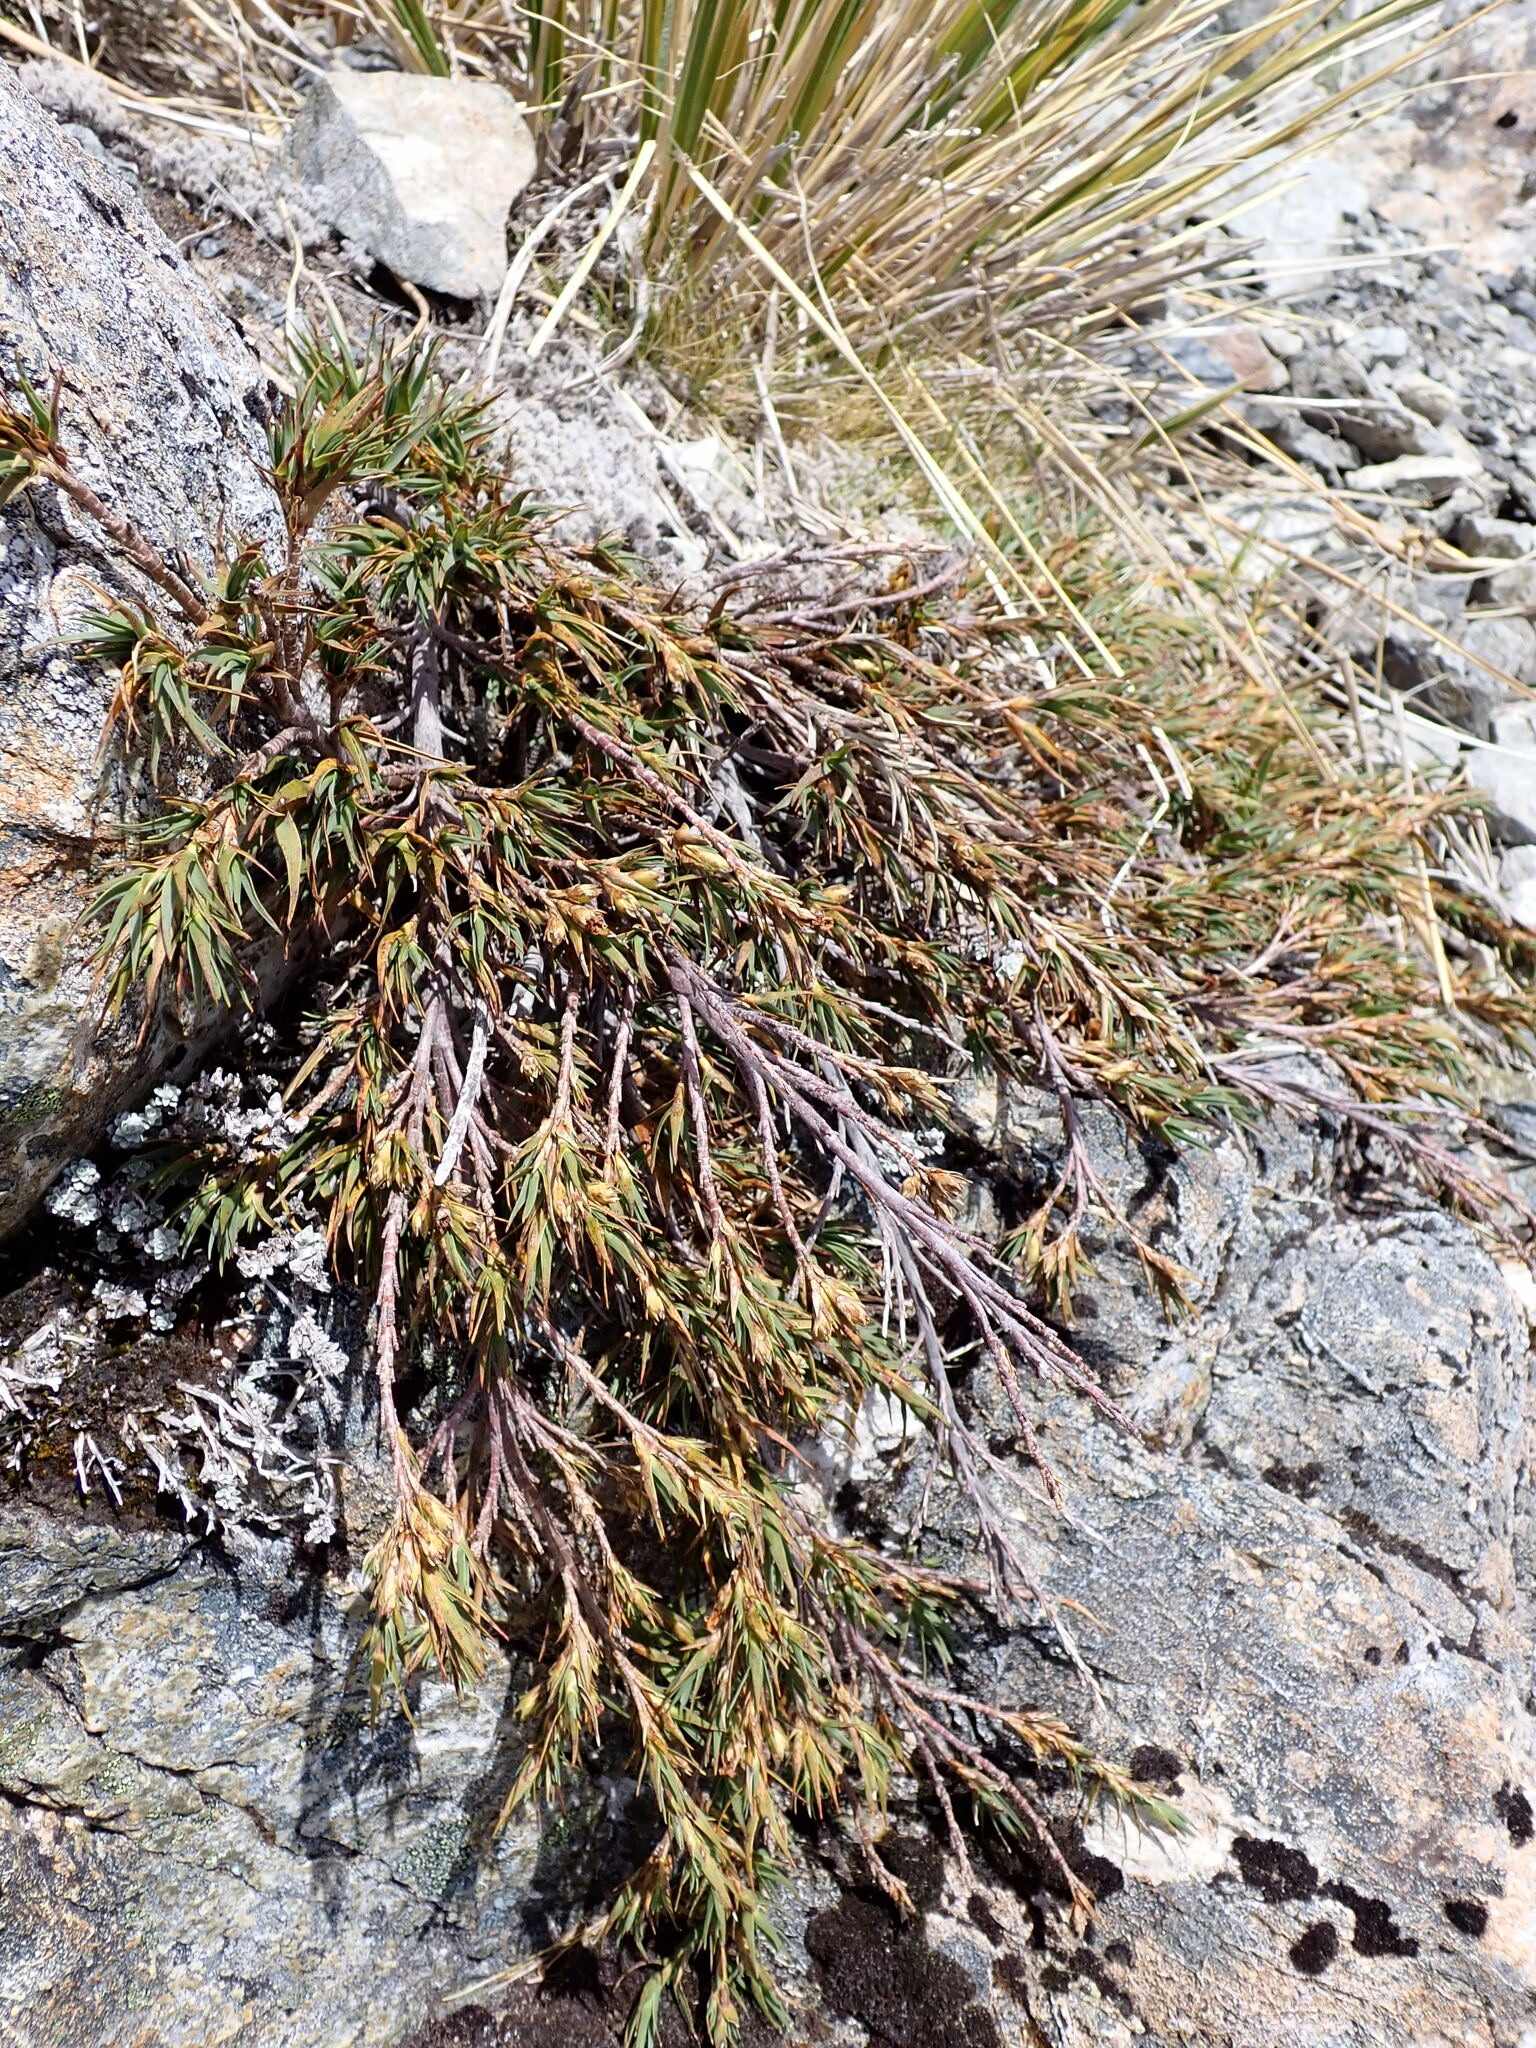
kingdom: Plantae
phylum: Tracheophyta
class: Magnoliopsida
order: Ericales
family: Ericaceae
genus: Dracophyllum
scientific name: Dracophyllum kirkii
